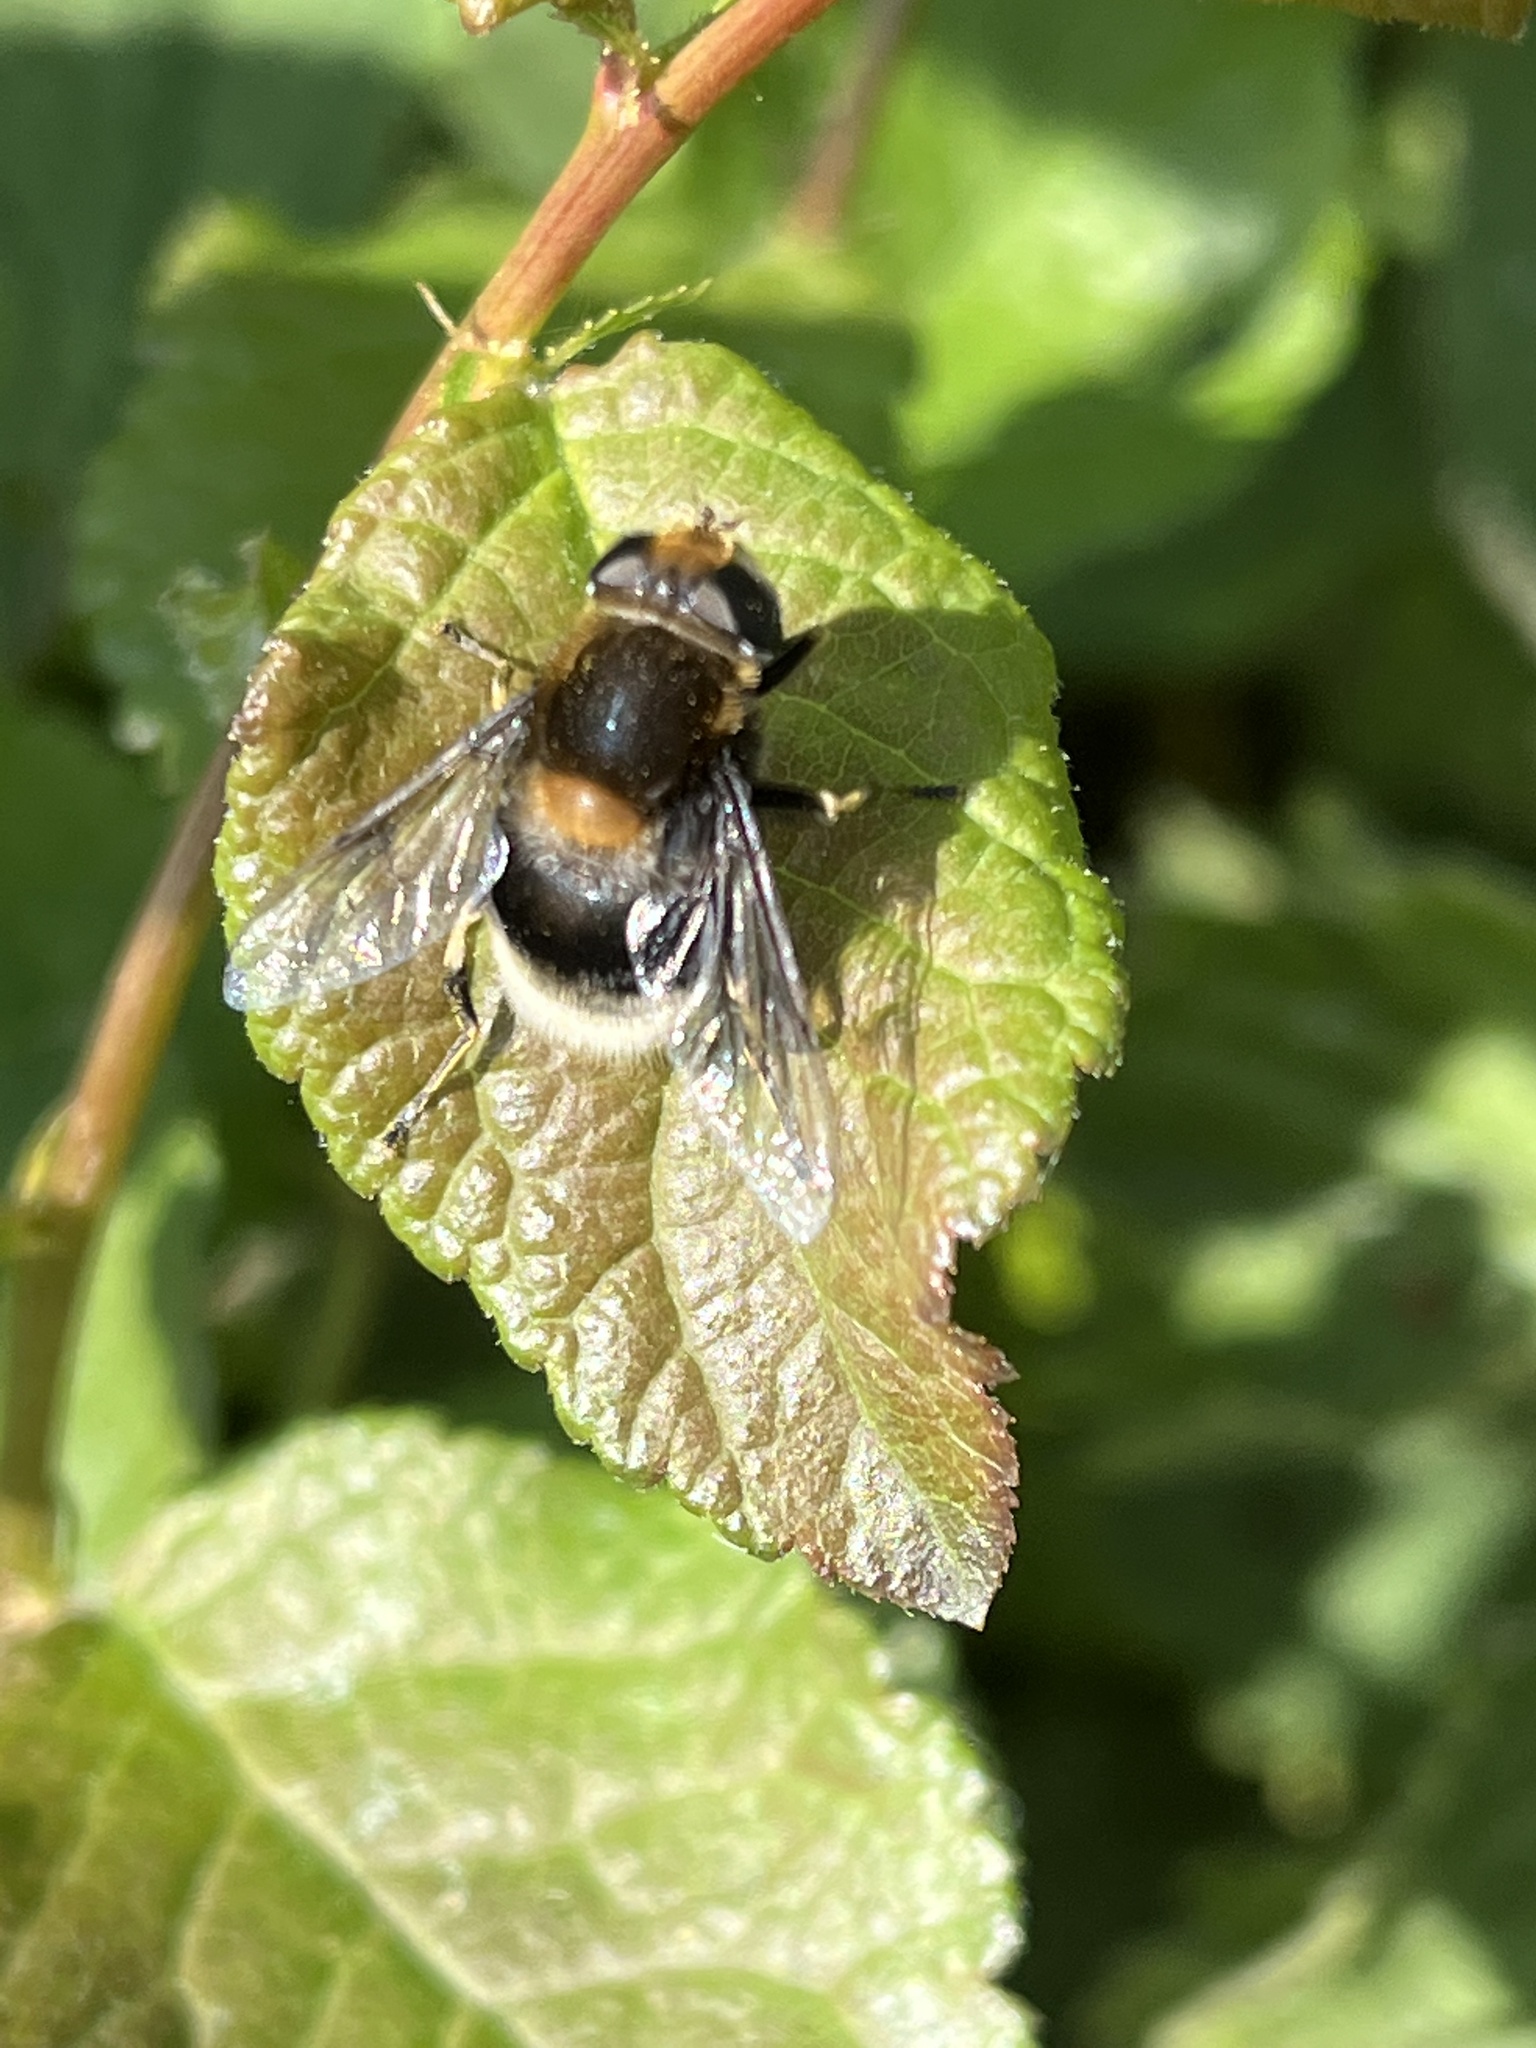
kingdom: Animalia
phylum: Arthropoda
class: Insecta
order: Diptera
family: Syrphidae
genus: Eristalis
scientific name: Eristalis intricaria
